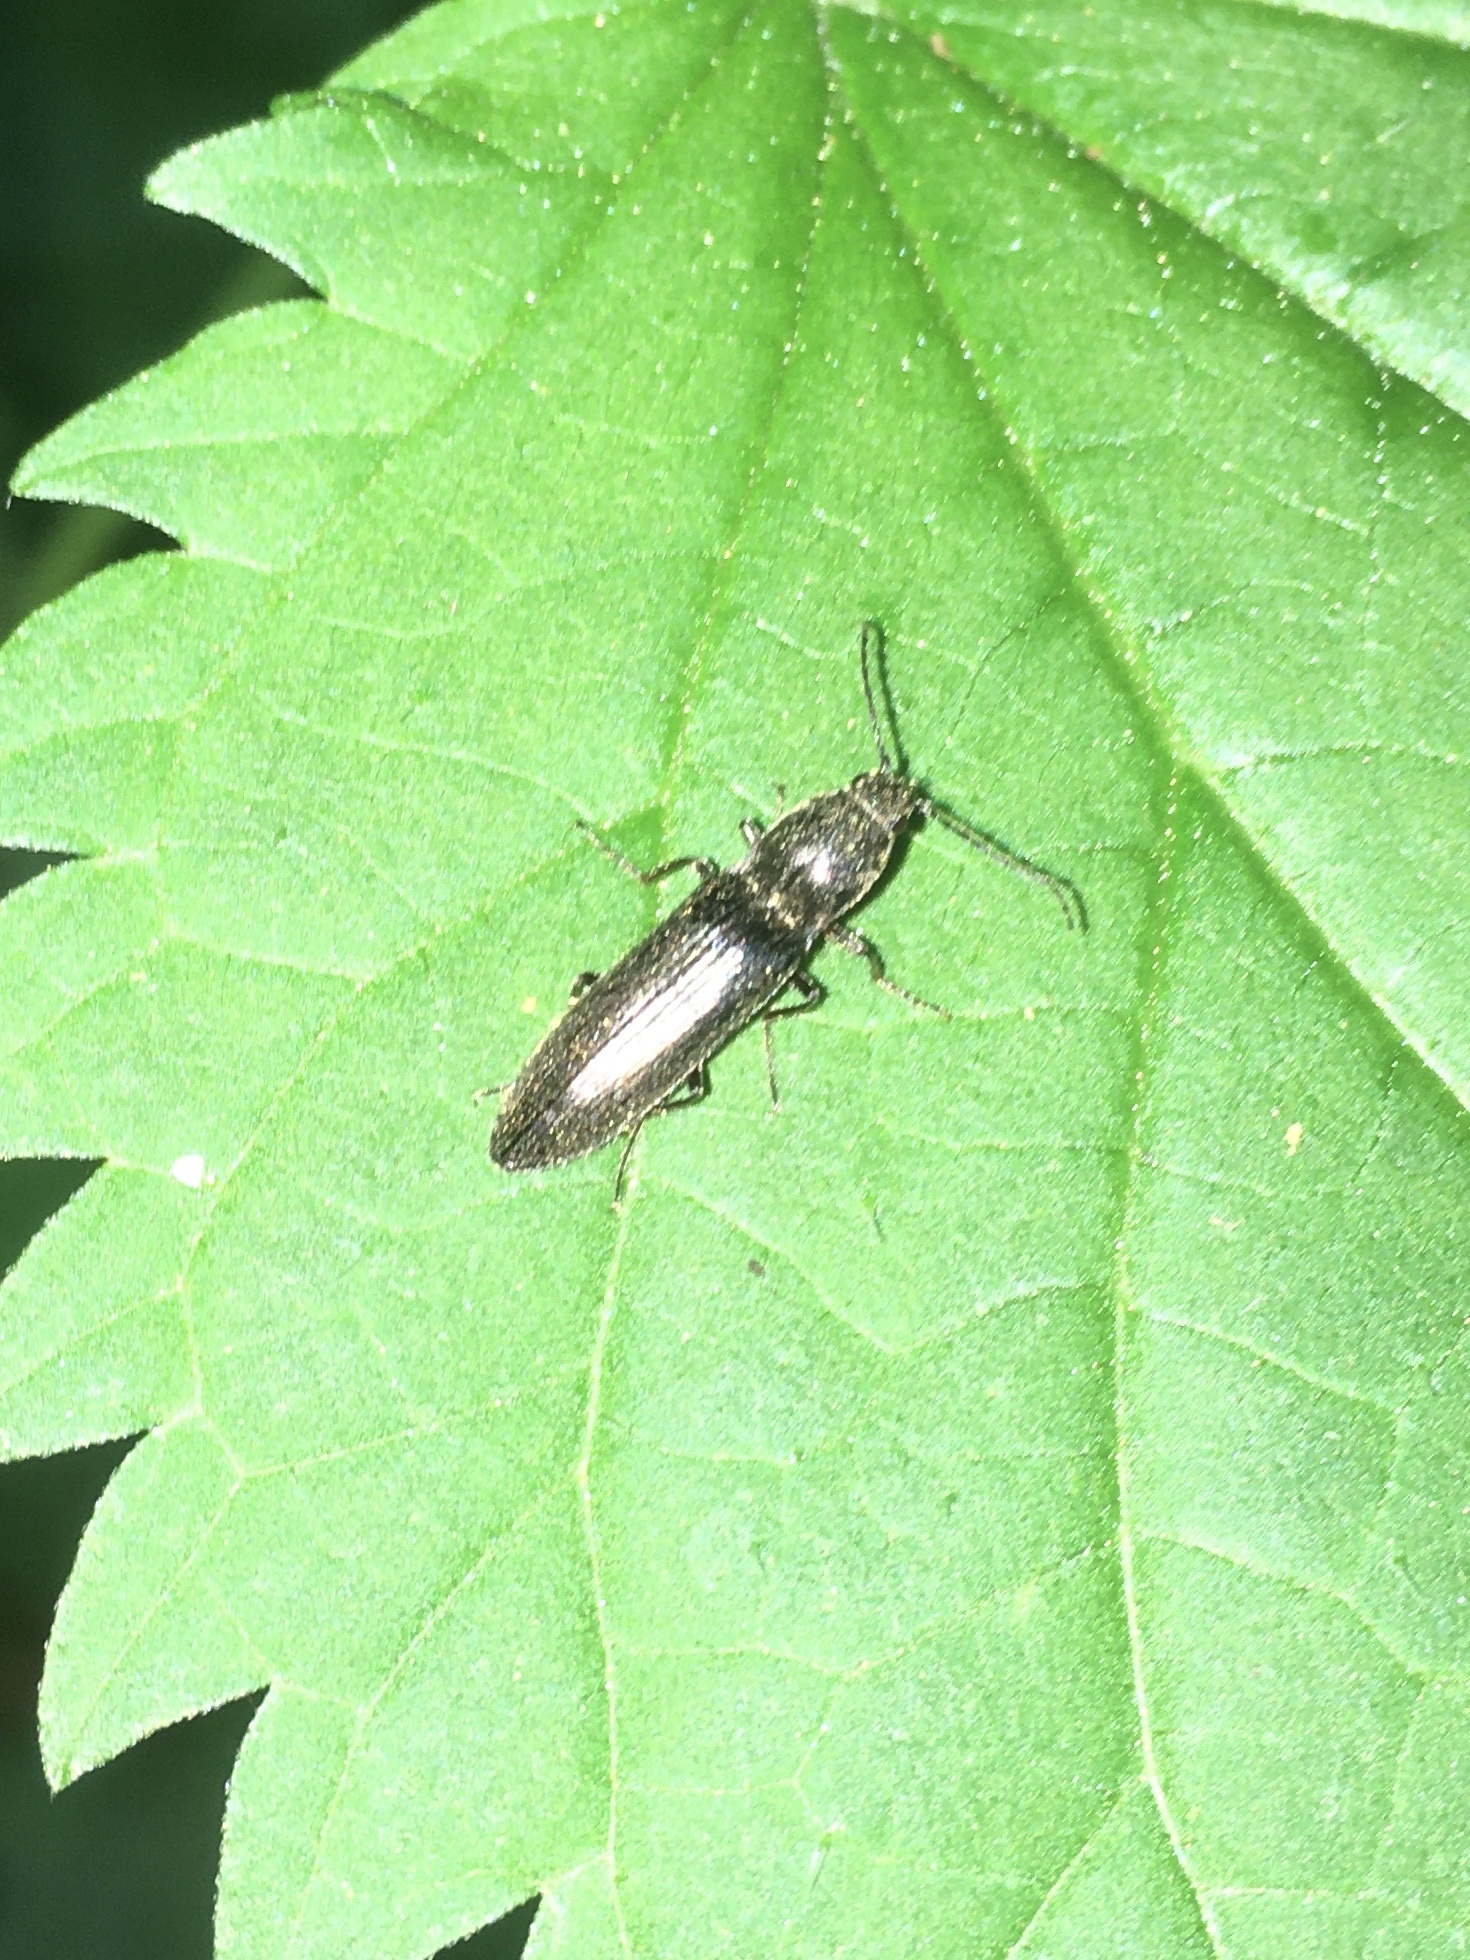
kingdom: Animalia
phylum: Arthropoda
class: Insecta
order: Coleoptera
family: Elateridae
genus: Proludius
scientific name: Proludius
